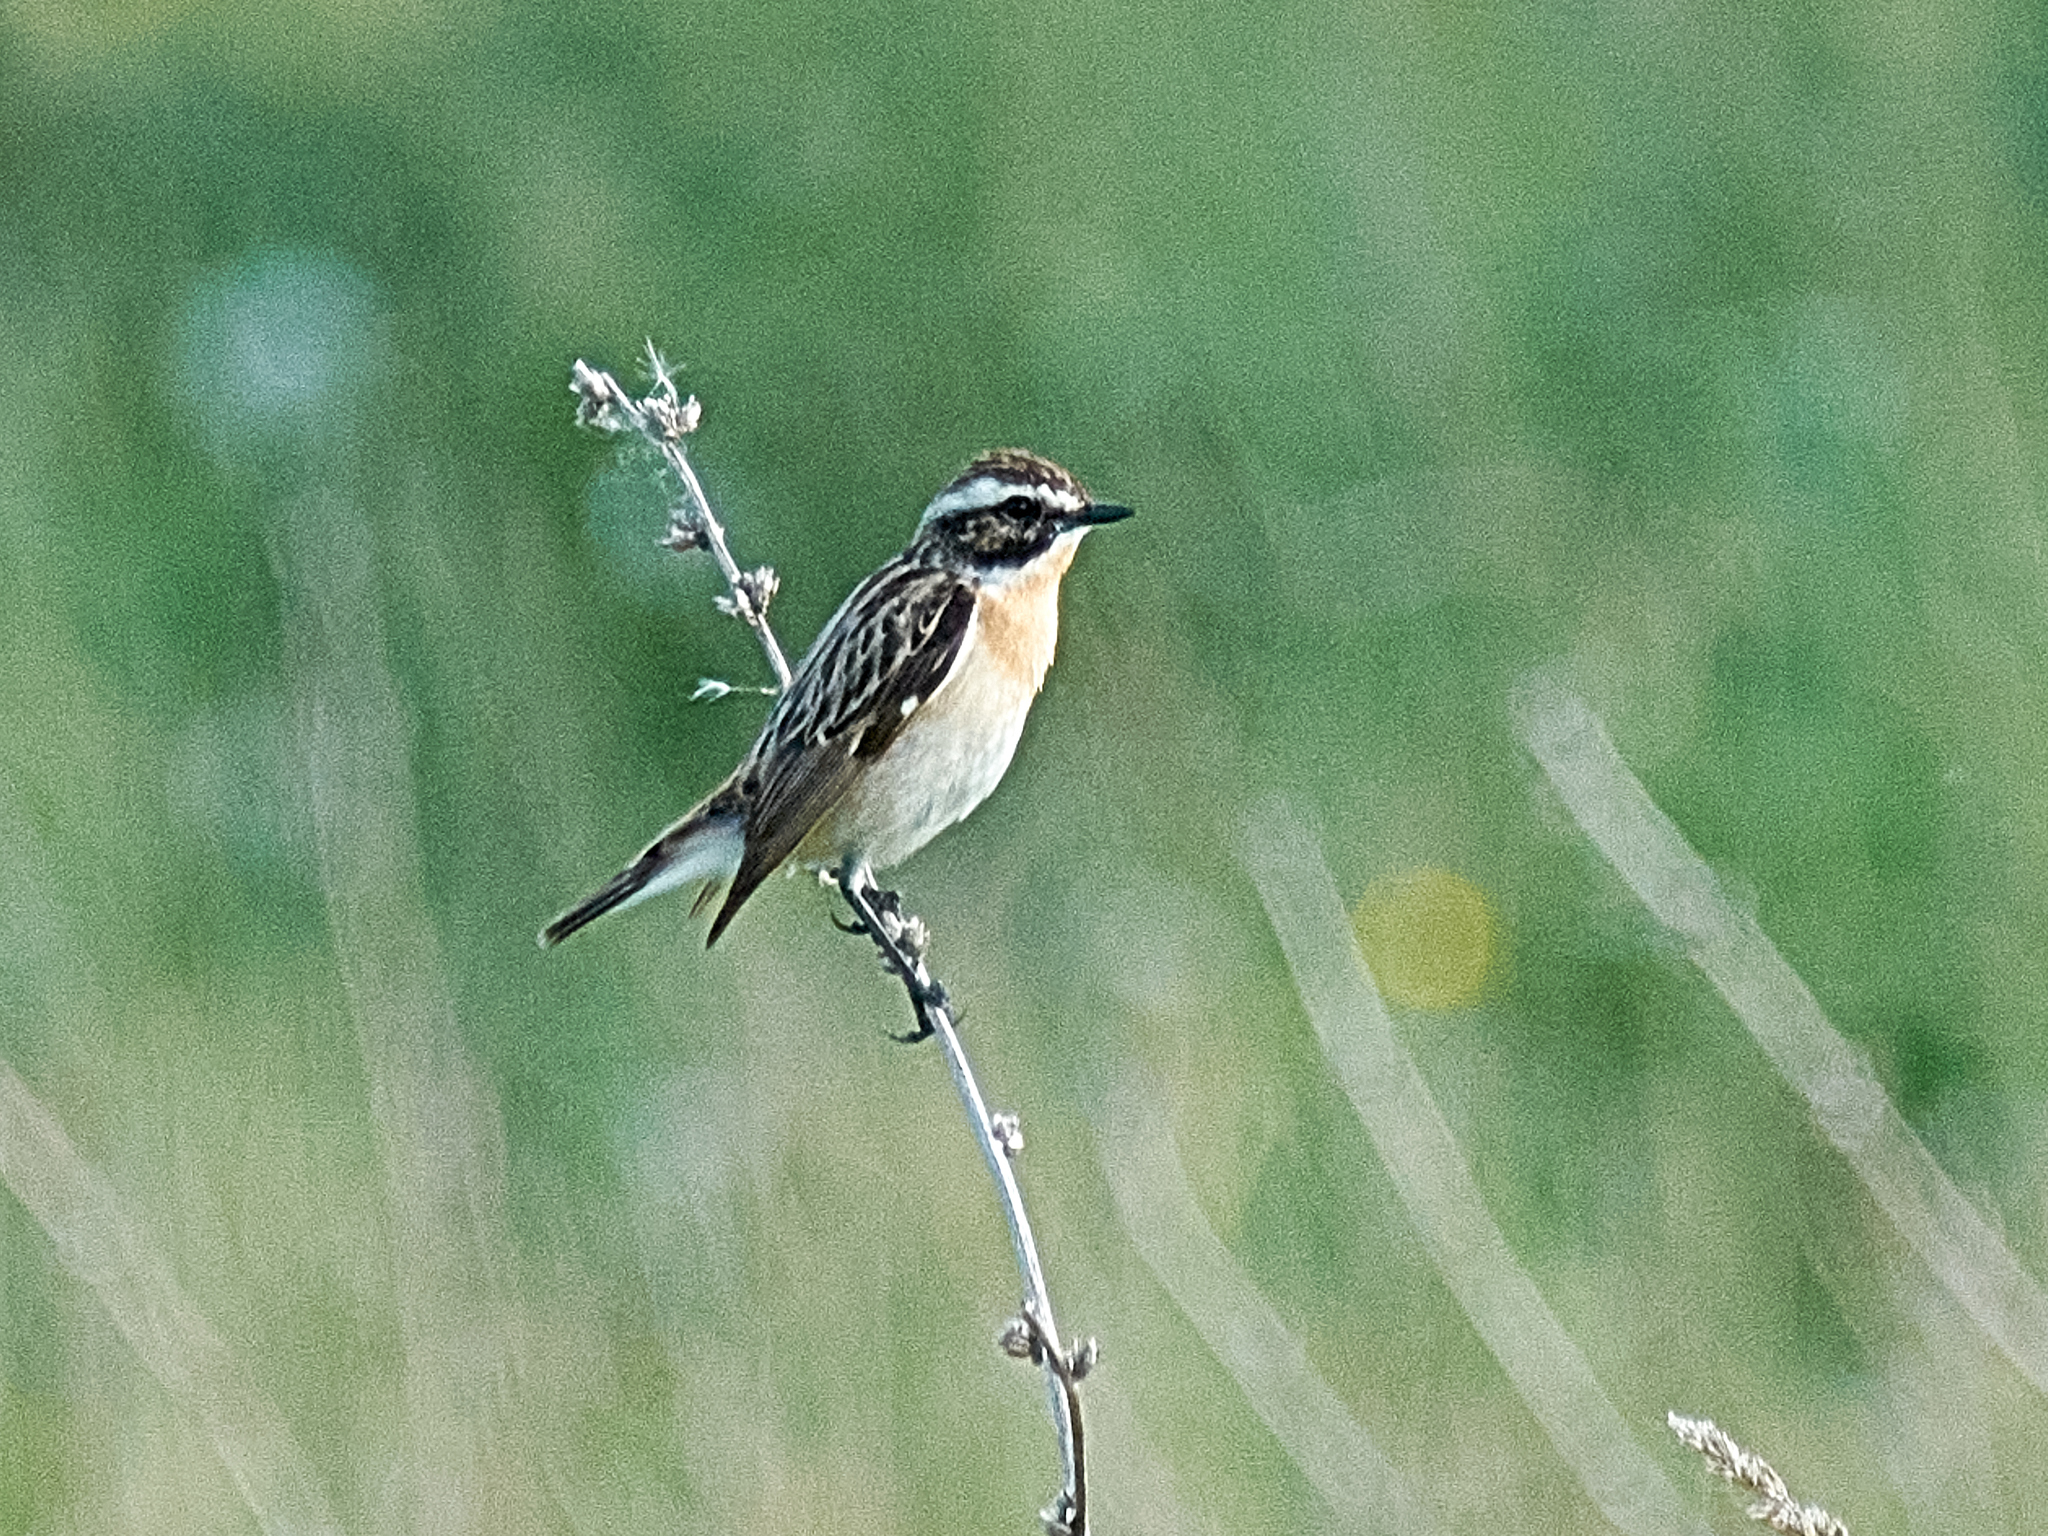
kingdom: Animalia
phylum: Chordata
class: Aves
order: Passeriformes
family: Muscicapidae
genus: Saxicola
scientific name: Saxicola rubetra
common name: Whinchat
